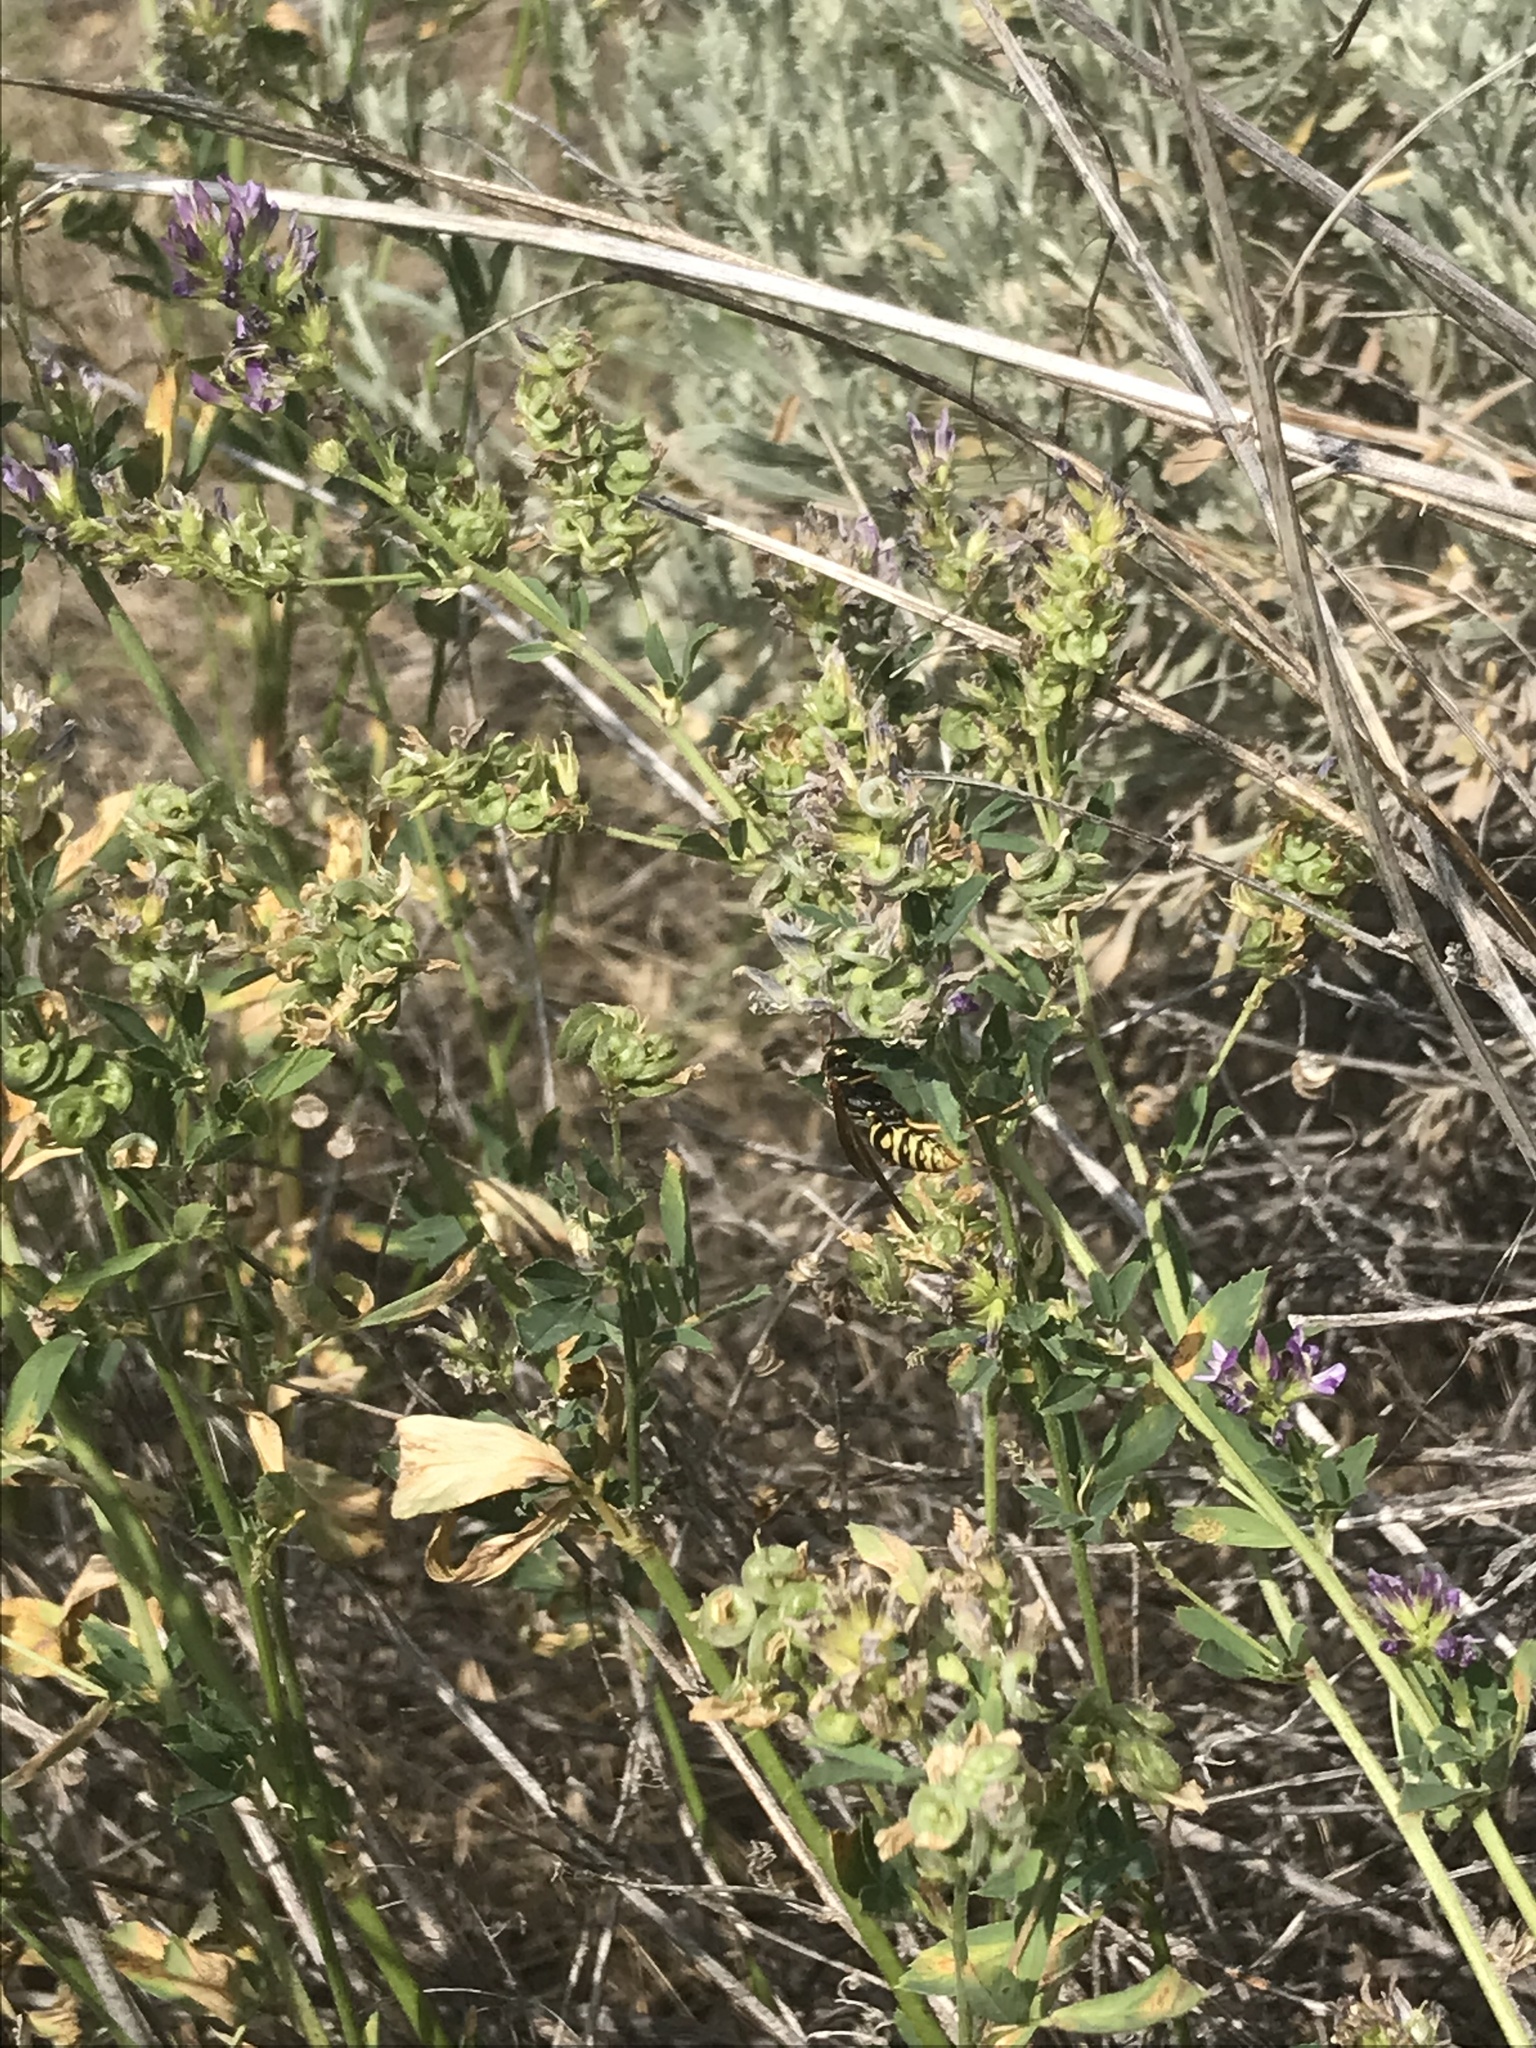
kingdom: Animalia
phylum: Arthropoda
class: Insecta
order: Hymenoptera
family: Eumenidae
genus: Polistes
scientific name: Polistes aurifer
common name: Paper wasp
